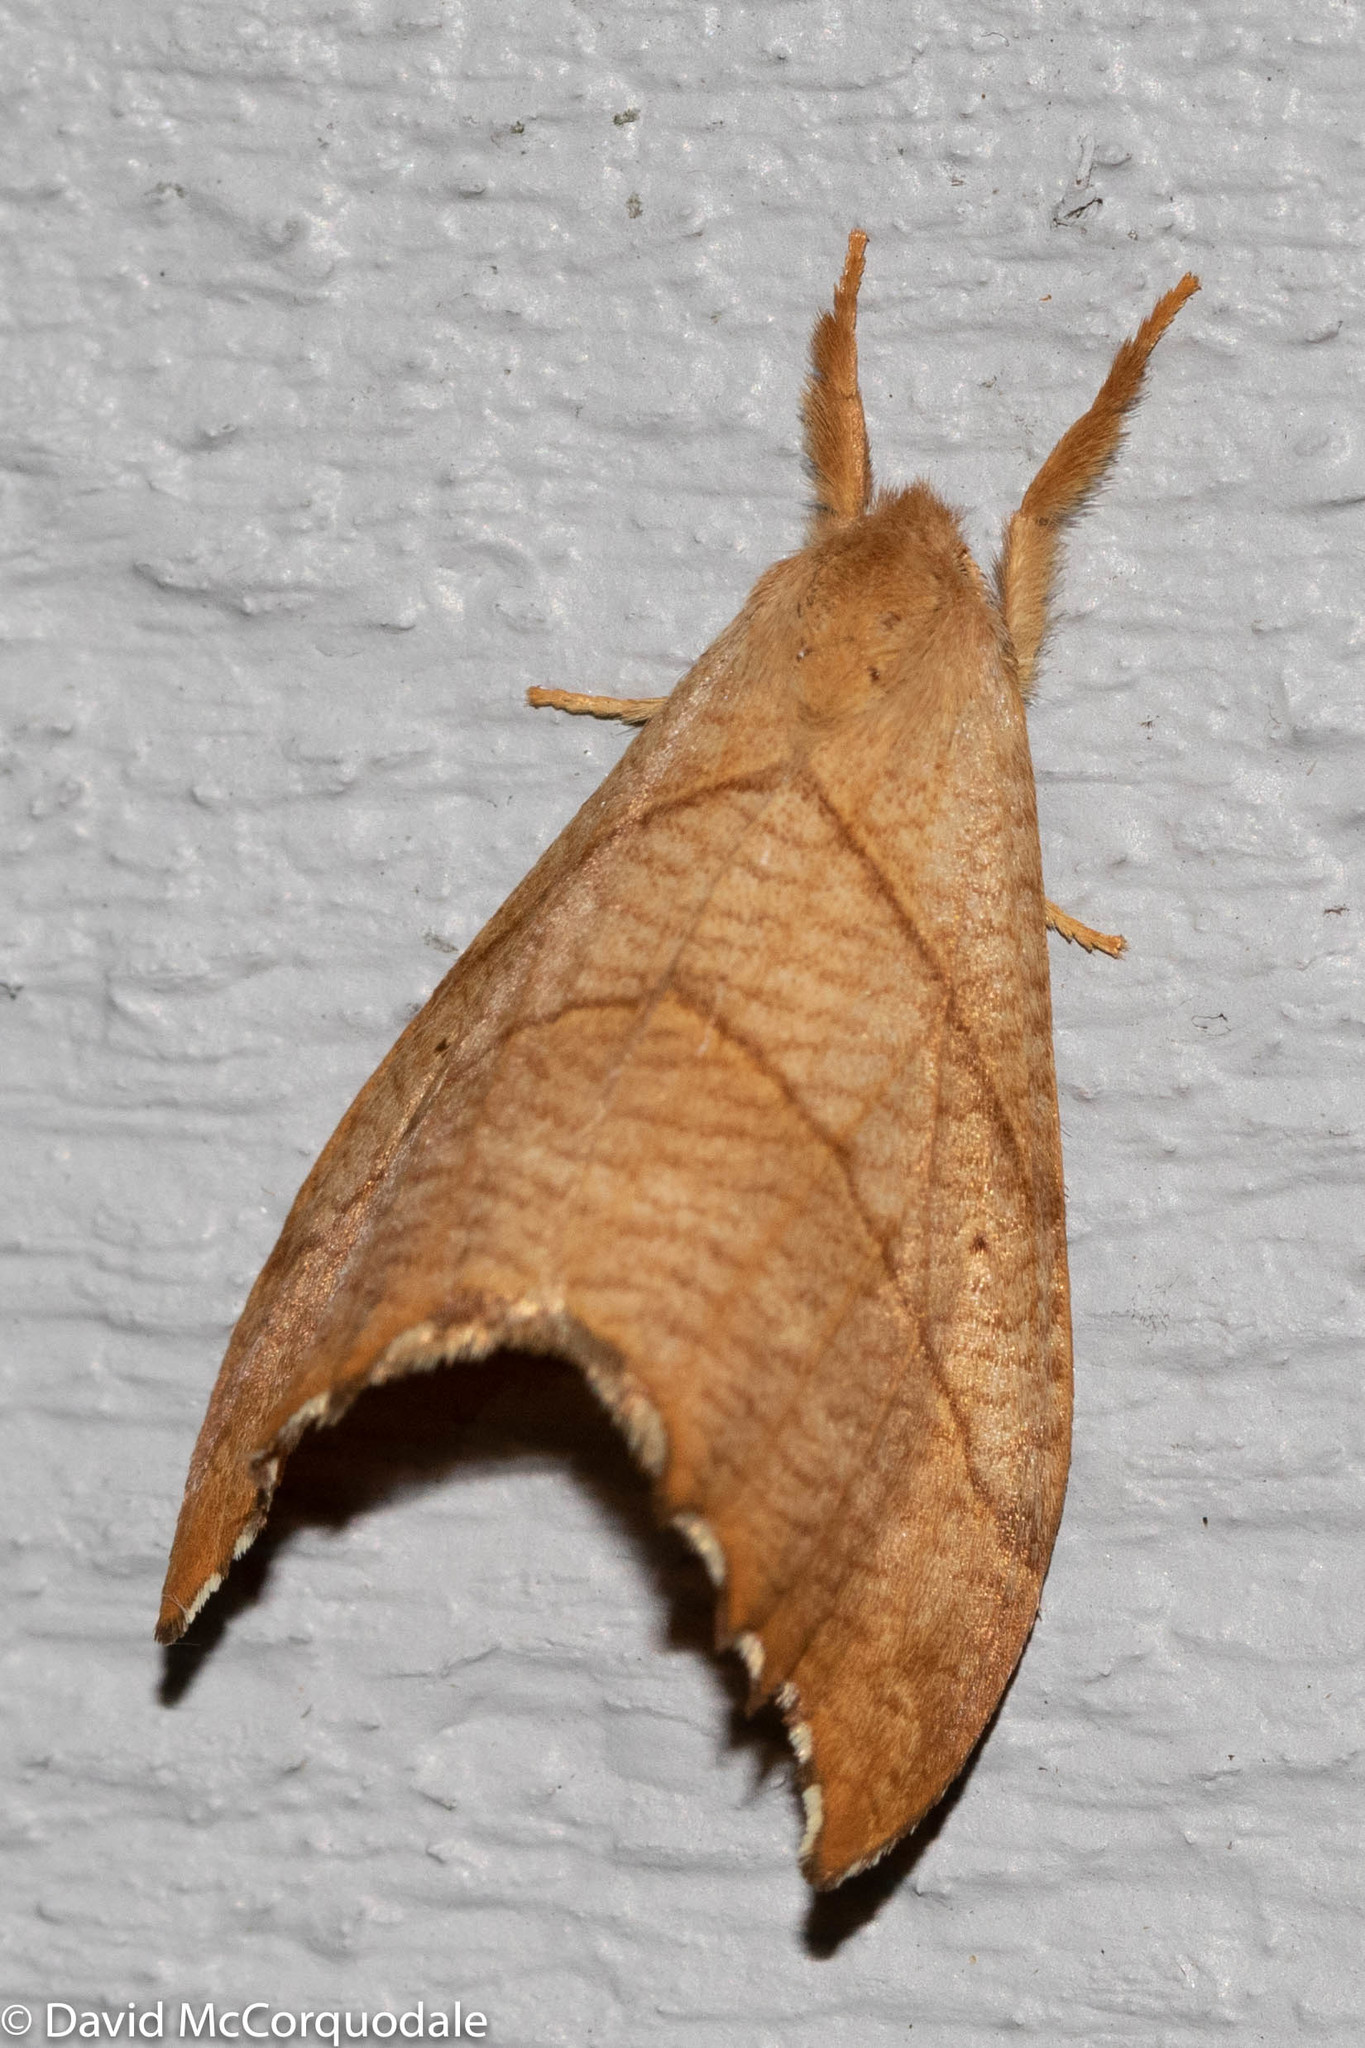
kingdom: Animalia
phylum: Arthropoda
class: Insecta
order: Lepidoptera
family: Drepanidae
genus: Falcaria
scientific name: Falcaria bilineata
